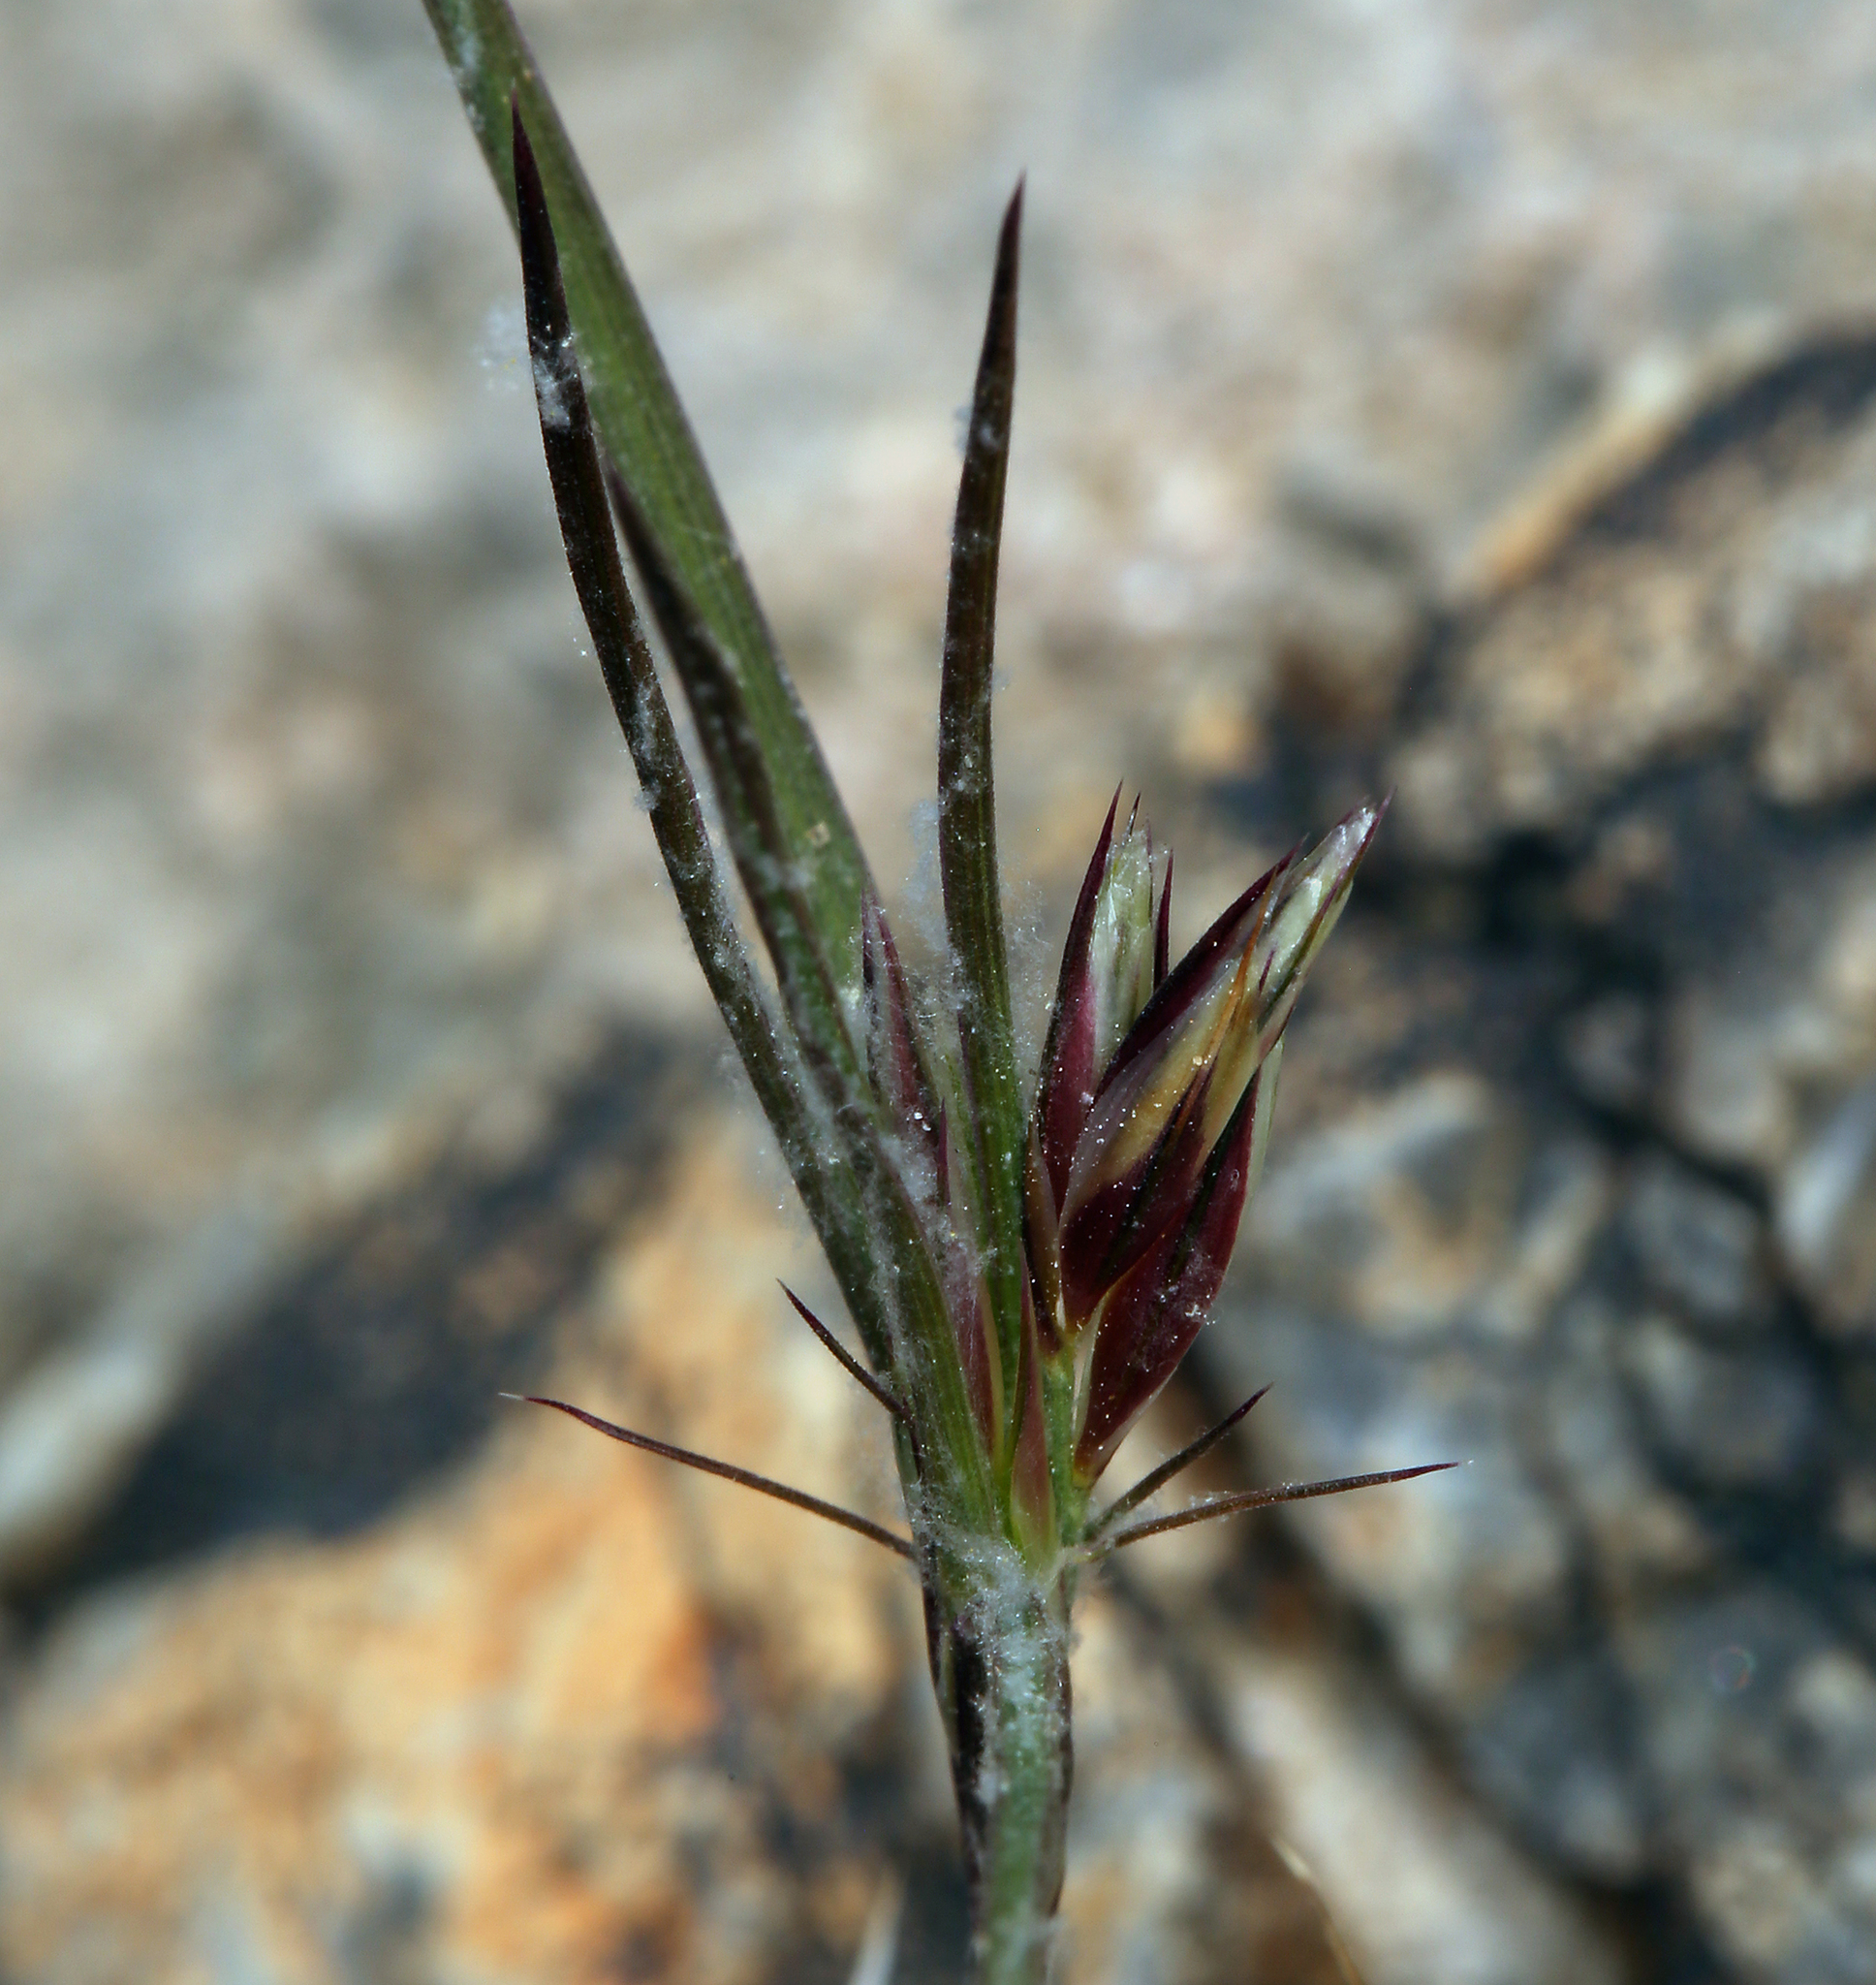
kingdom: Plantae
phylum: Tracheophyta
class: Liliopsida
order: Poales
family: Poaceae
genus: Dasyochloa
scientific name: Dasyochloa pulchella
